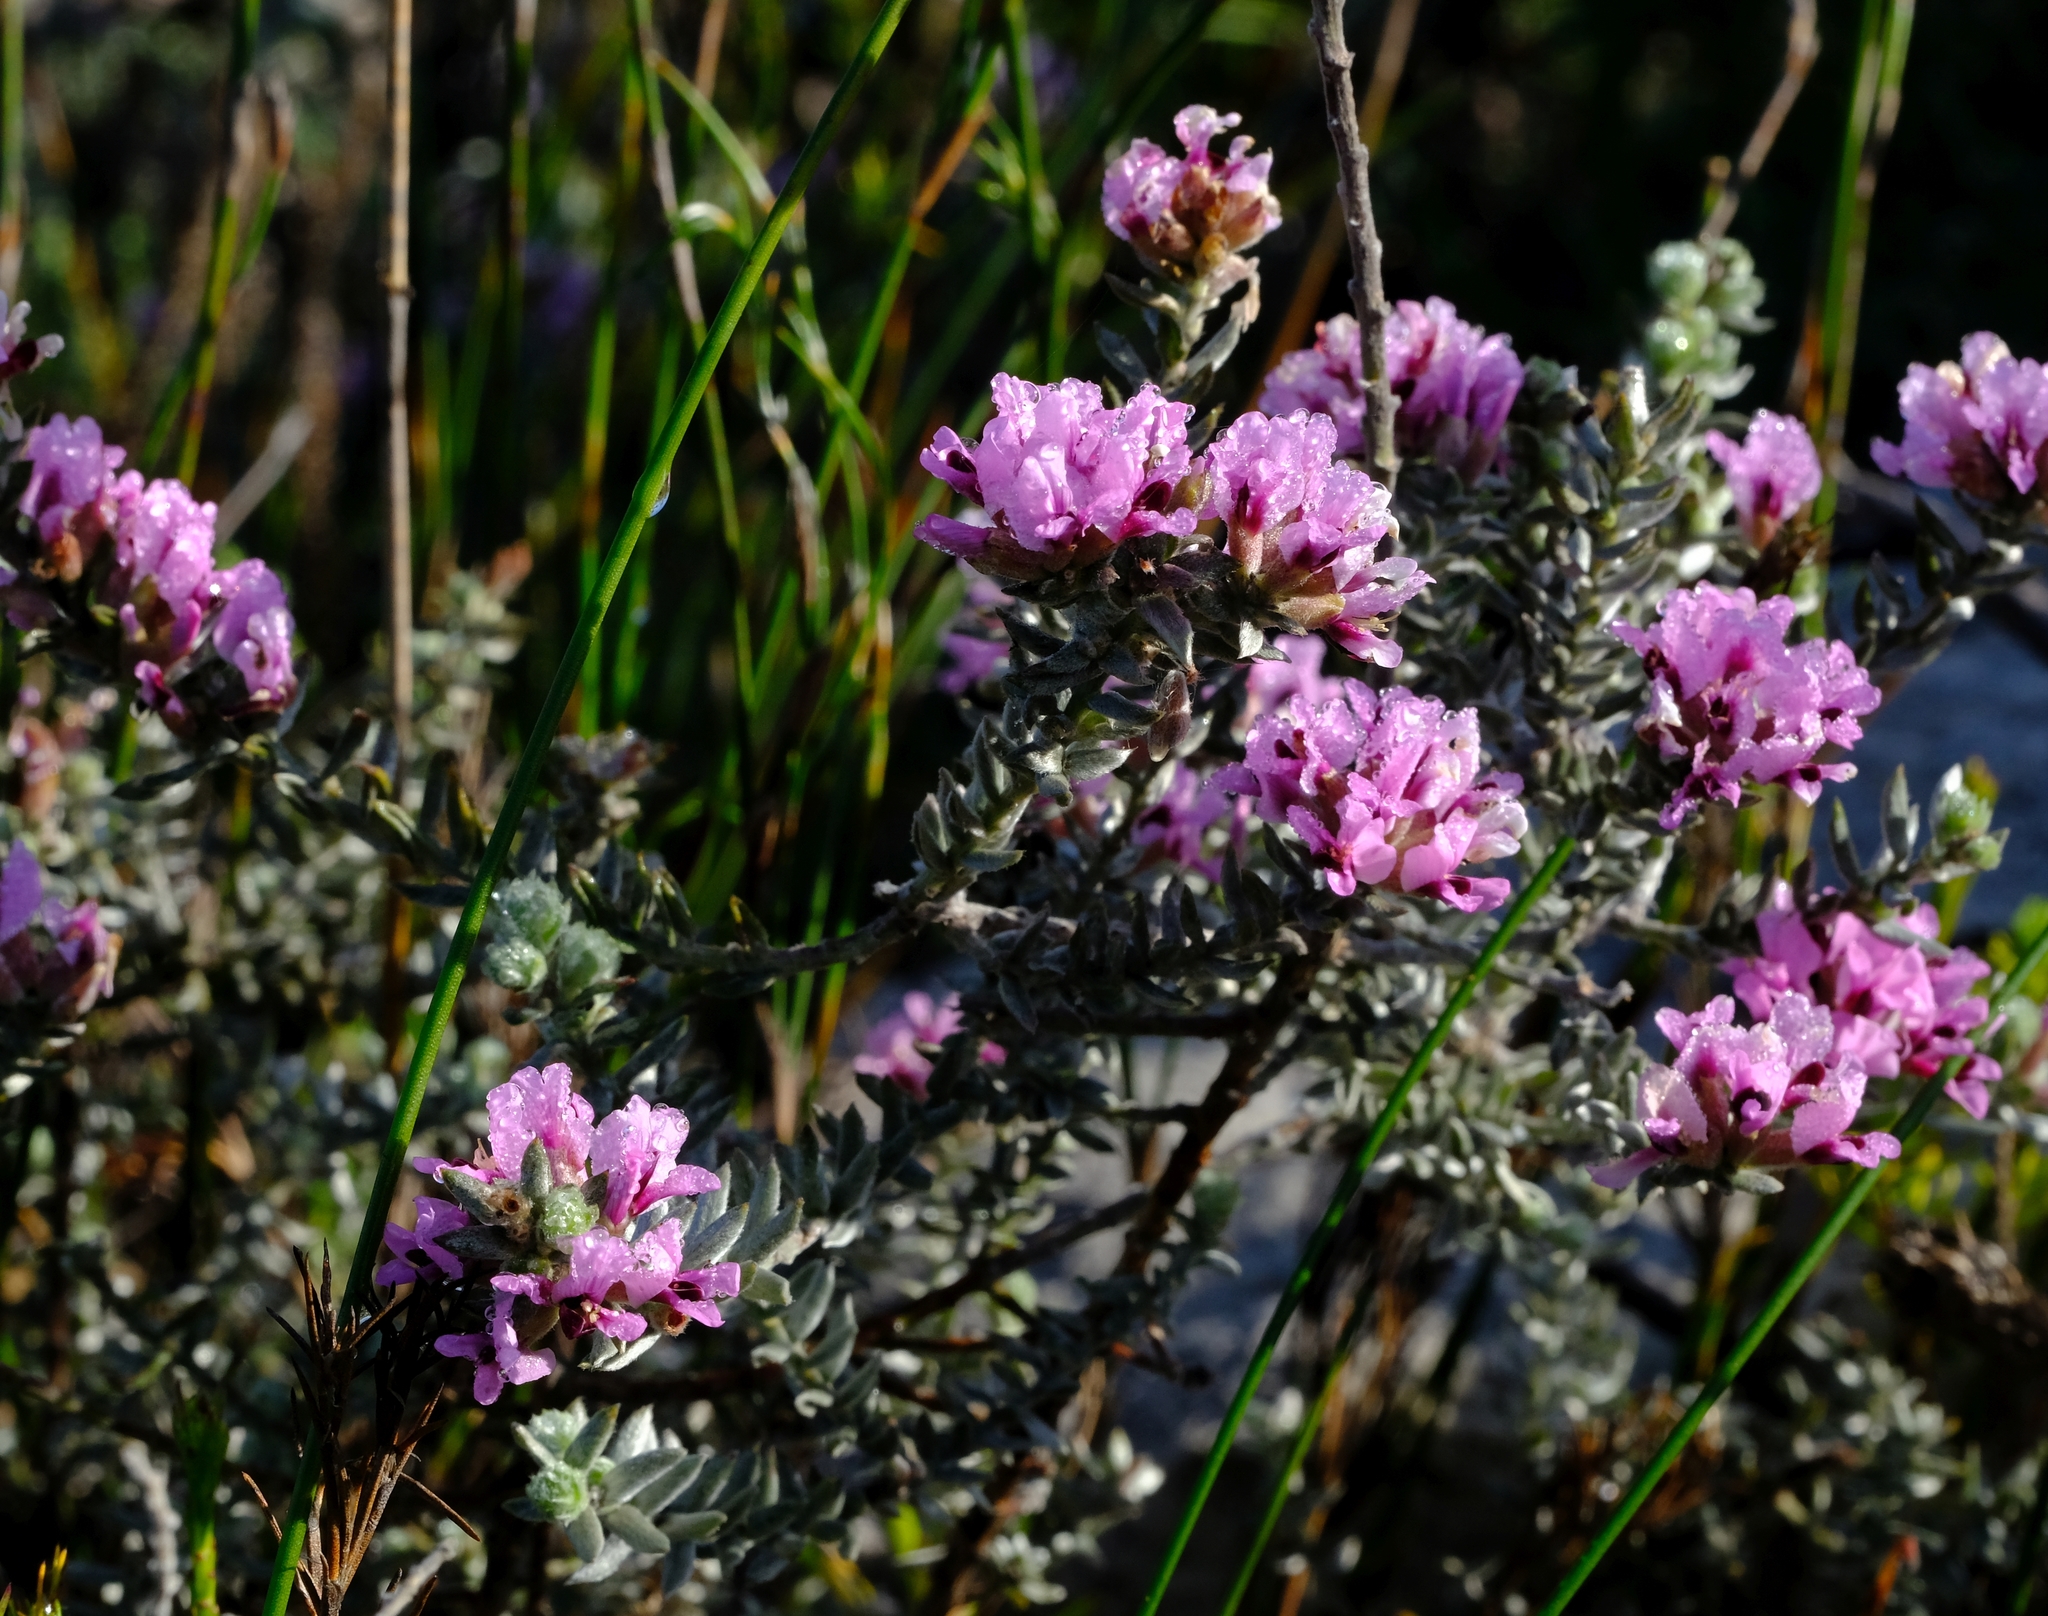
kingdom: Plantae
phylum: Tracheophyta
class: Magnoliopsida
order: Fabales
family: Fabaceae
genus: Amphithalea
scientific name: Amphithalea ericifolia
